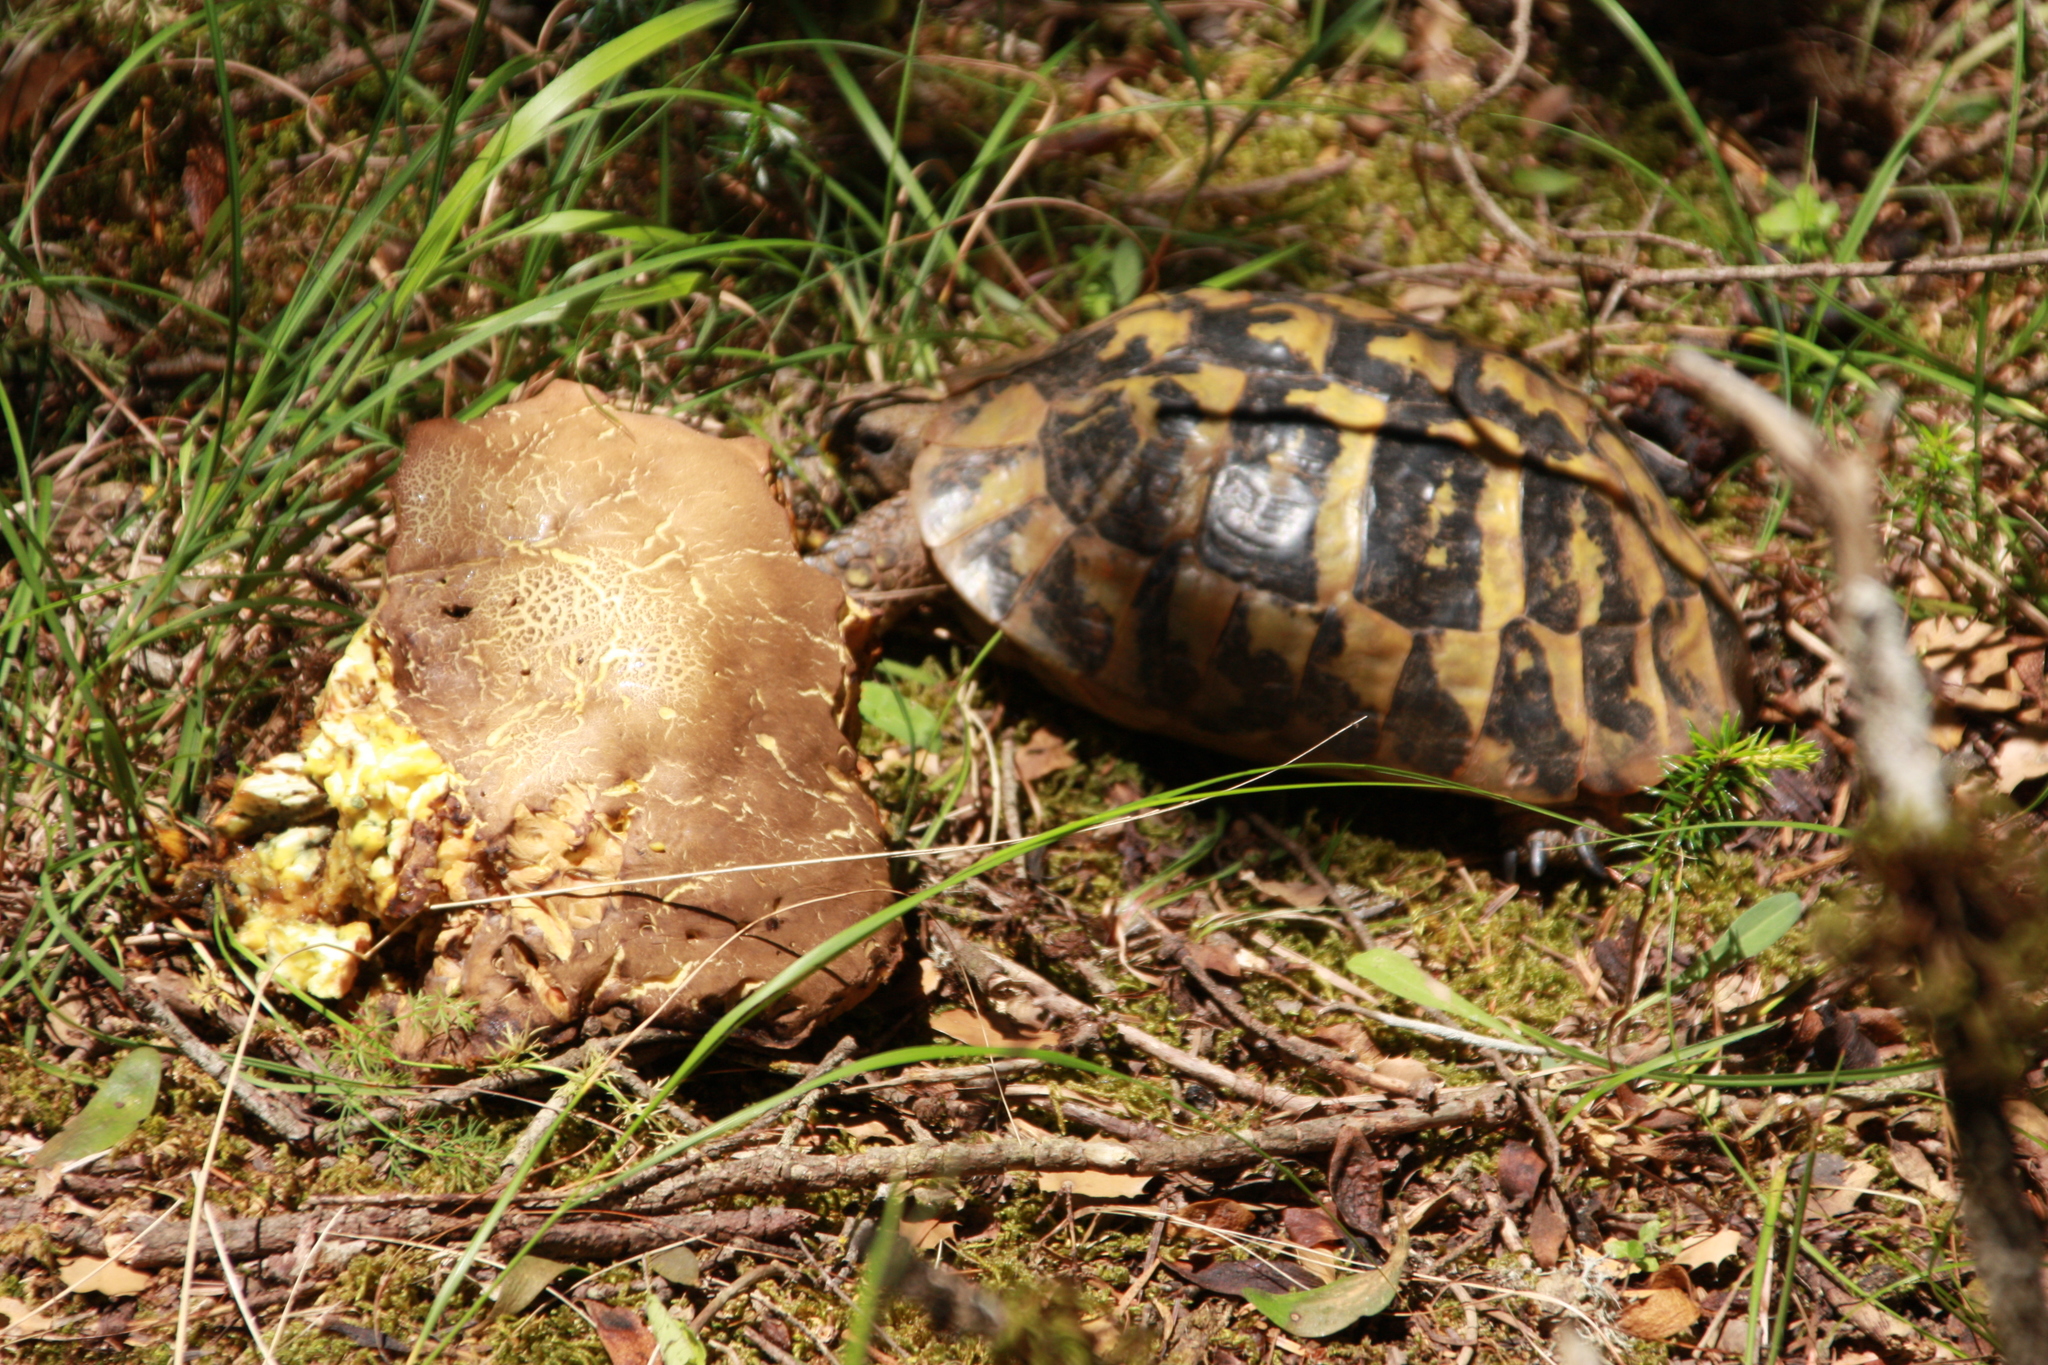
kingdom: Animalia
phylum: Chordata
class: Testudines
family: Testudinidae
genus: Testudo
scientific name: Testudo hermanni
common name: Hermann's tortoise
